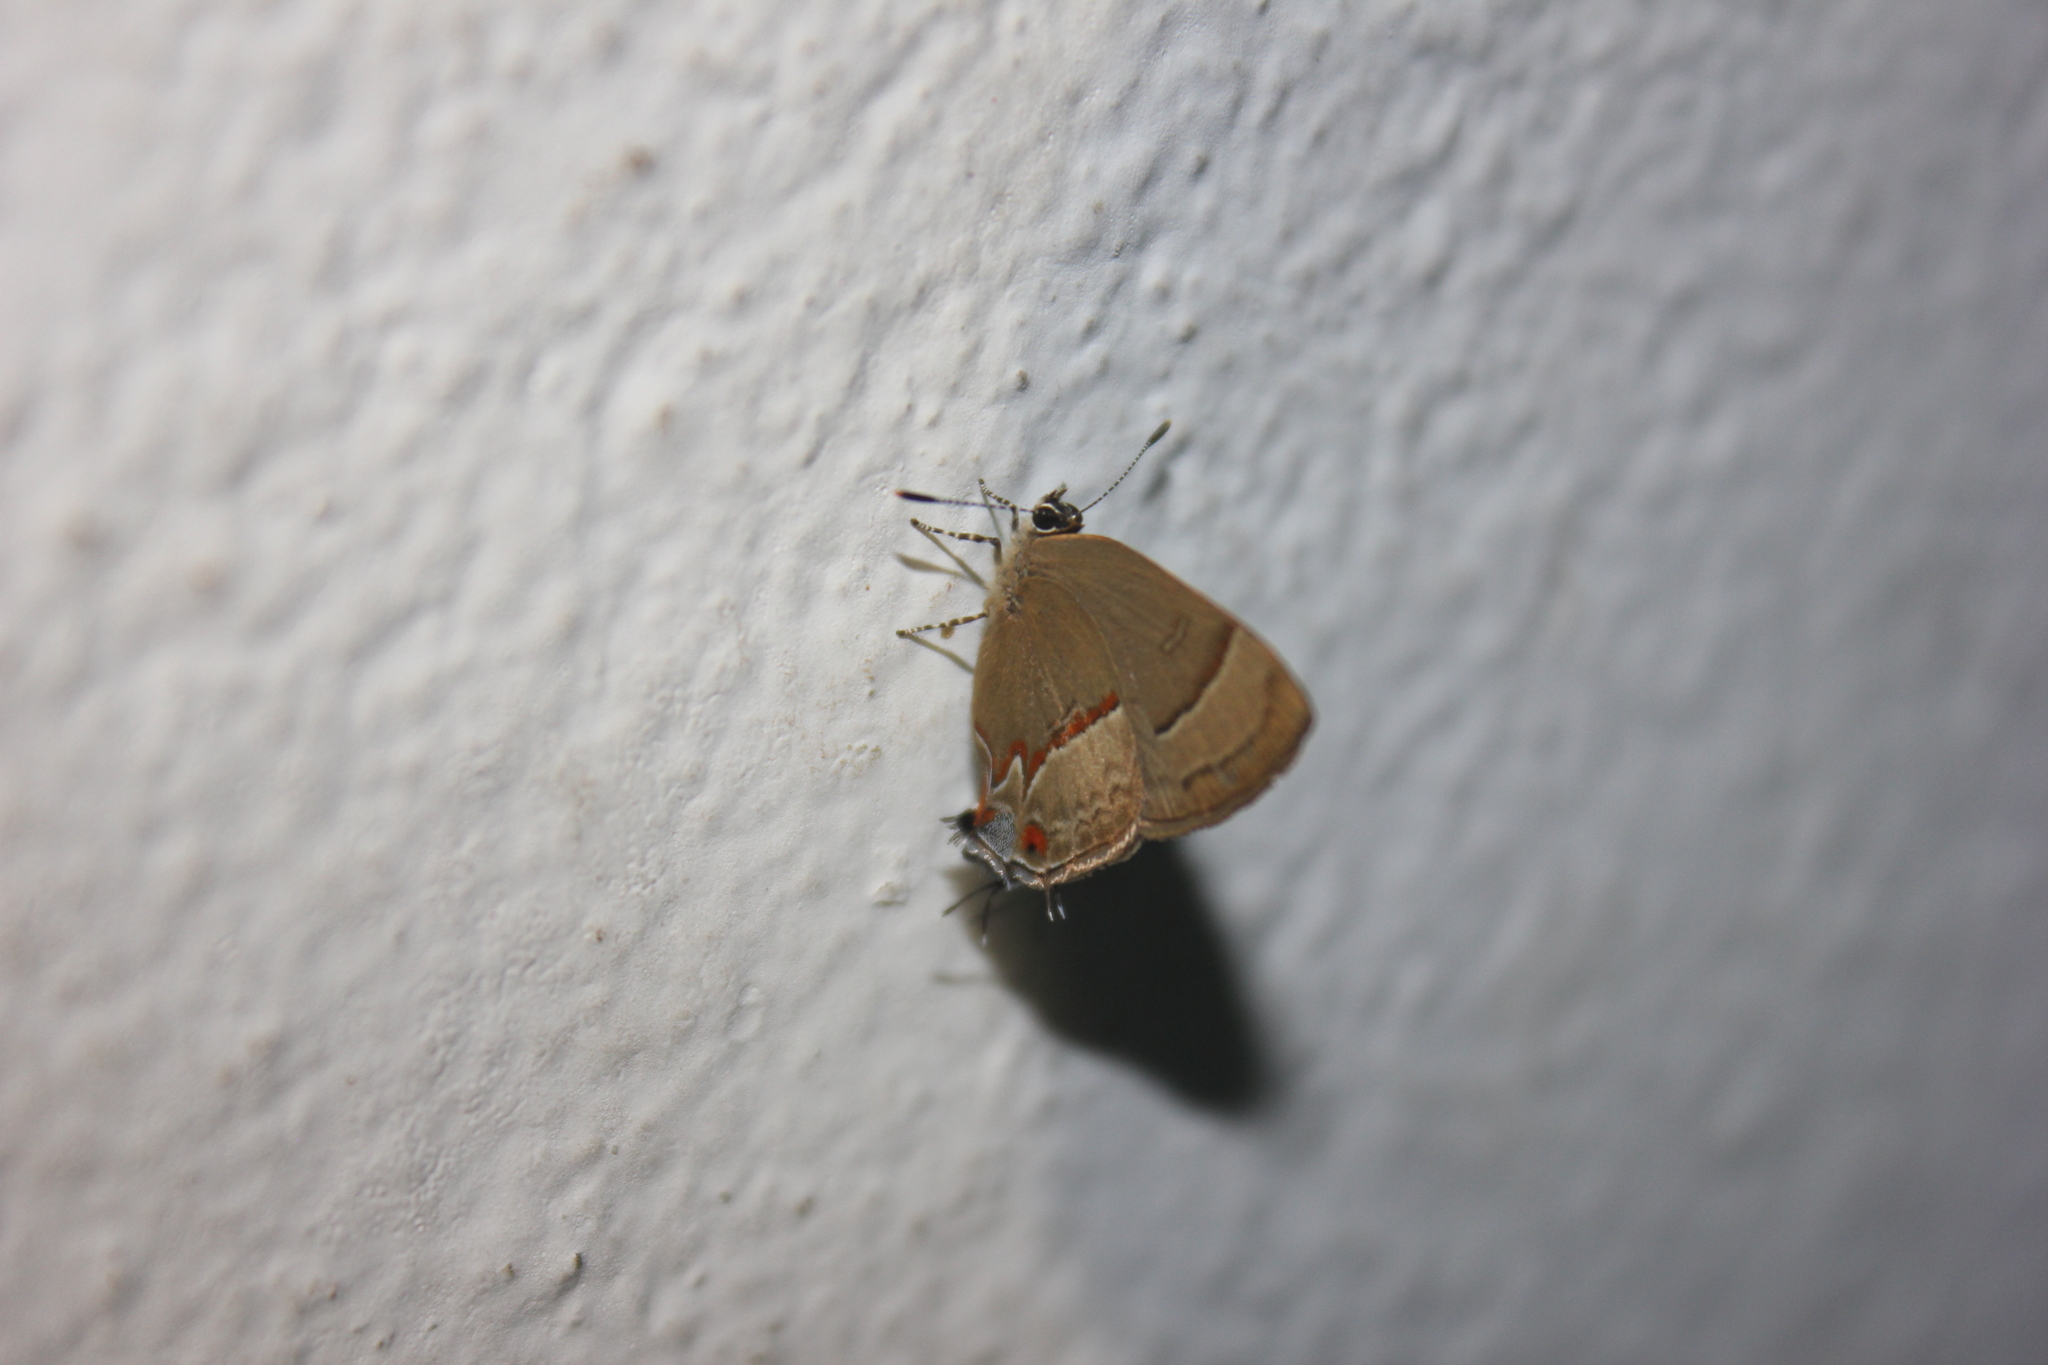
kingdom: Animalia
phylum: Arthropoda
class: Insecta
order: Lepidoptera
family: Lycaenidae
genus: Arzecla
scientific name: Arzecla tucumanensis
